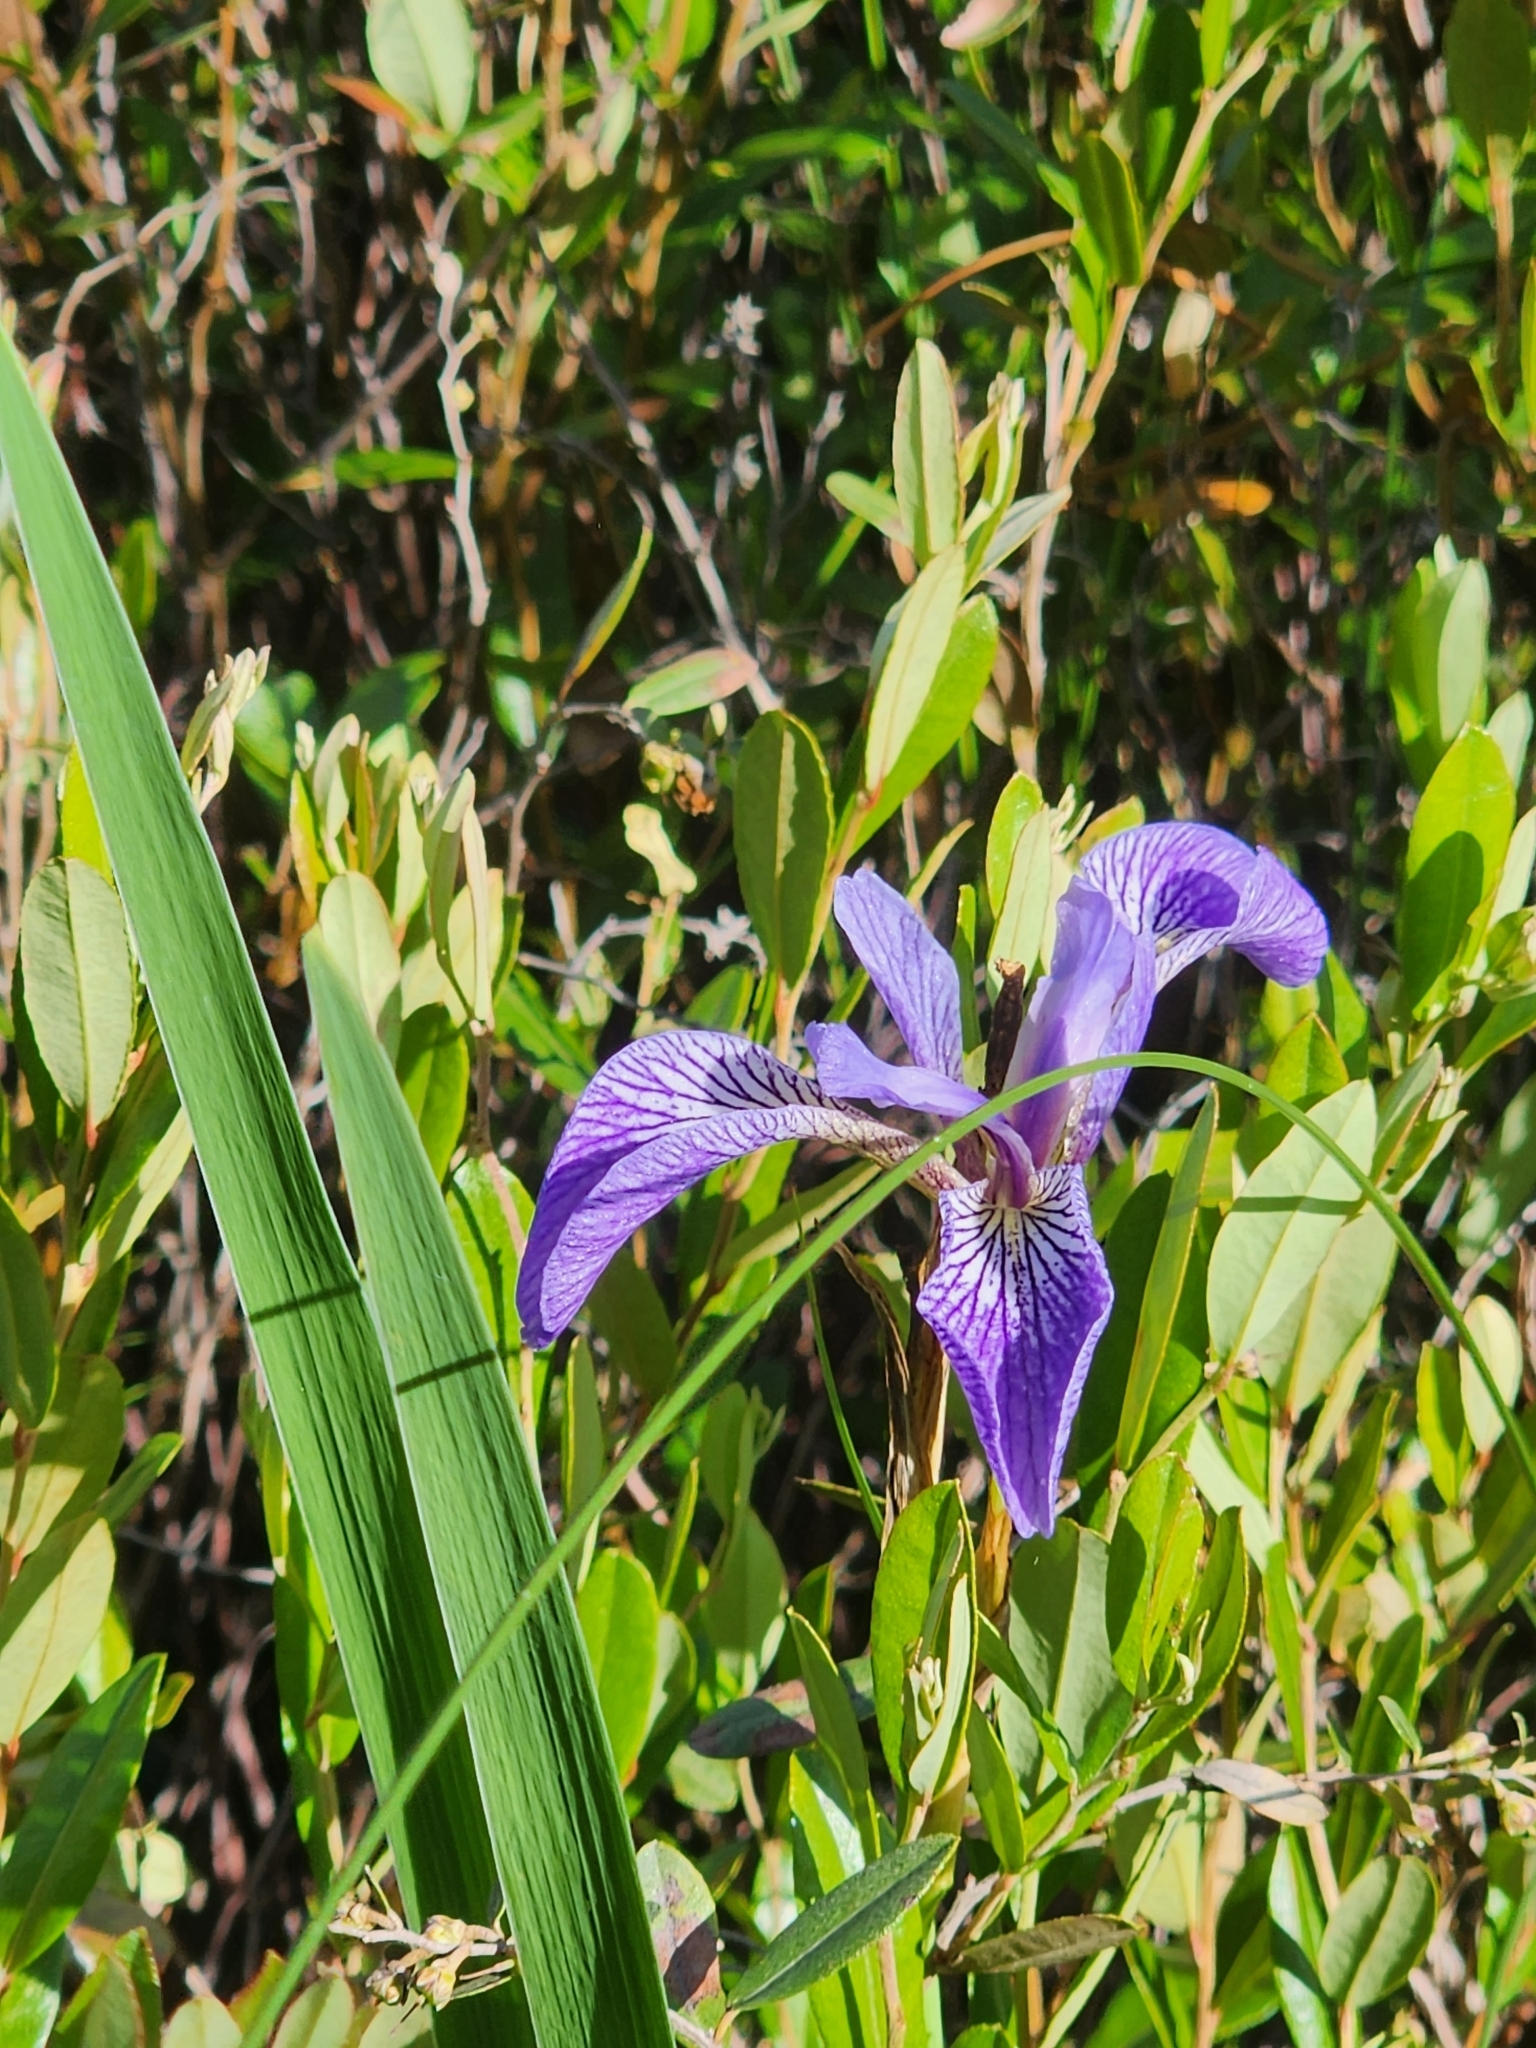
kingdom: Plantae
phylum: Tracheophyta
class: Liliopsida
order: Asparagales
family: Iridaceae
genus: Iris
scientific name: Iris versicolor
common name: Purple iris
